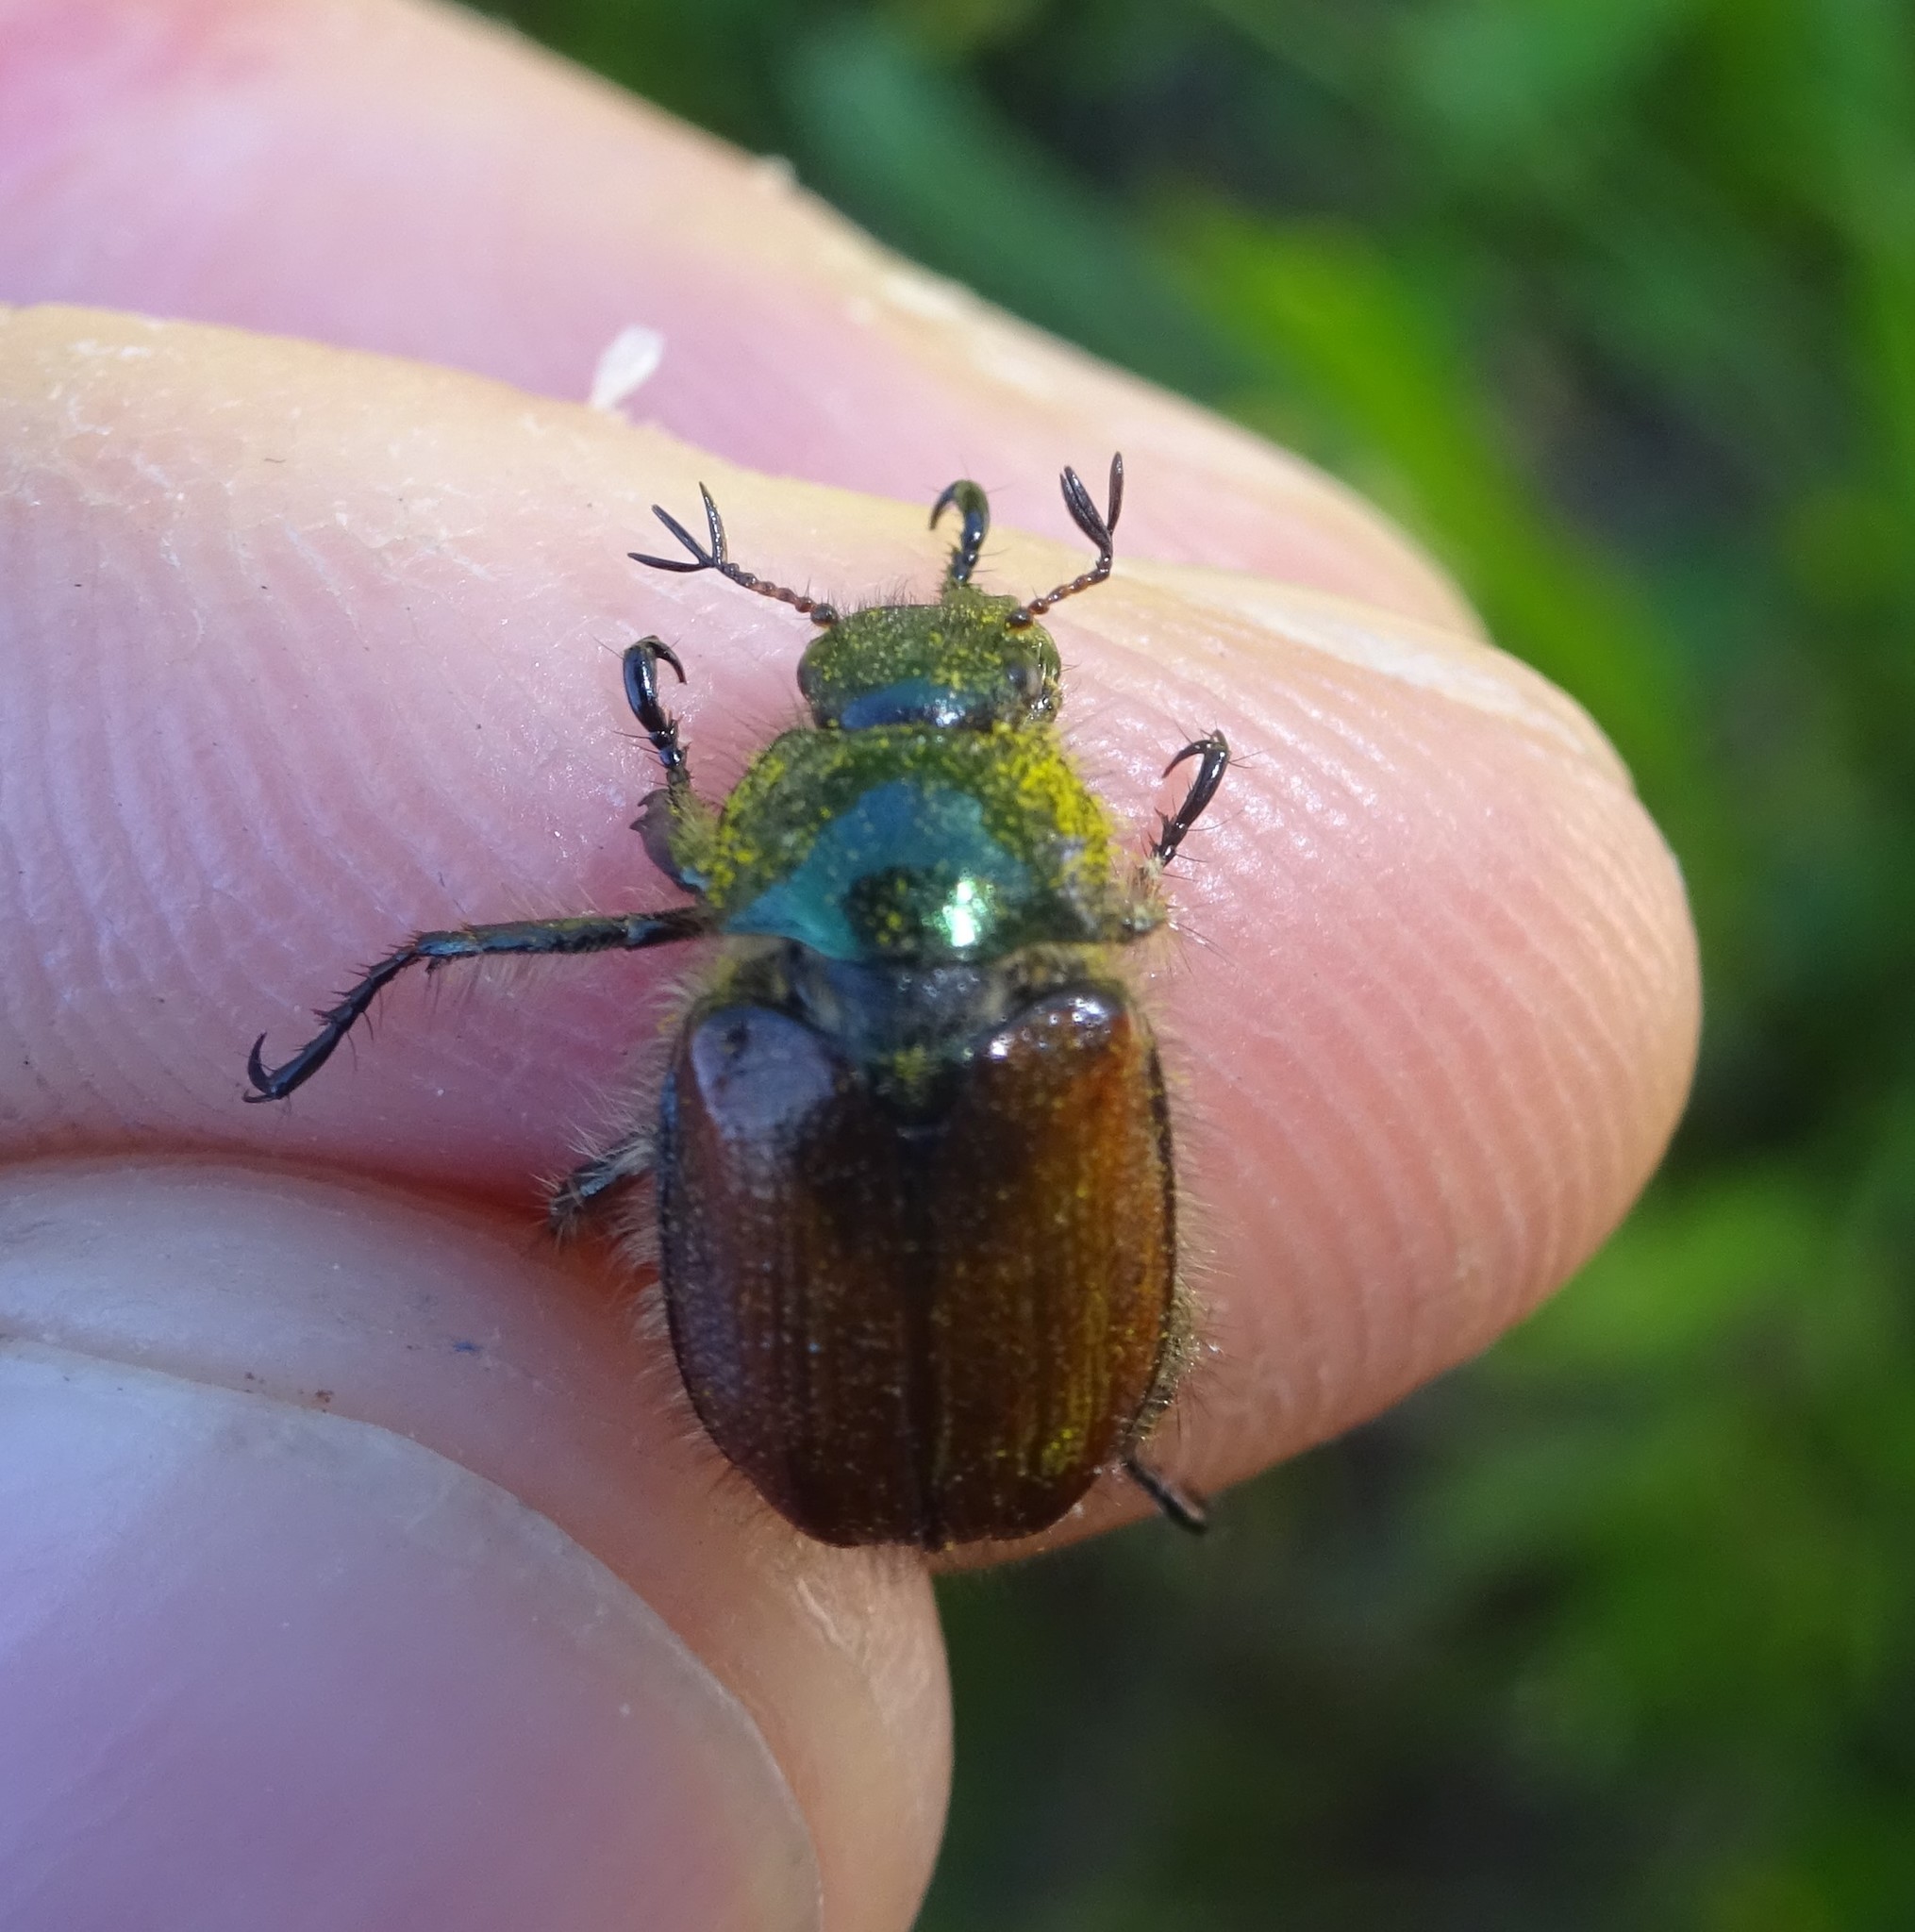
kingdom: Animalia
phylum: Arthropoda
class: Insecta
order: Coleoptera
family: Scarabaeidae
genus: Phyllopertha
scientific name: Phyllopertha horticola
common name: Garden chafer
